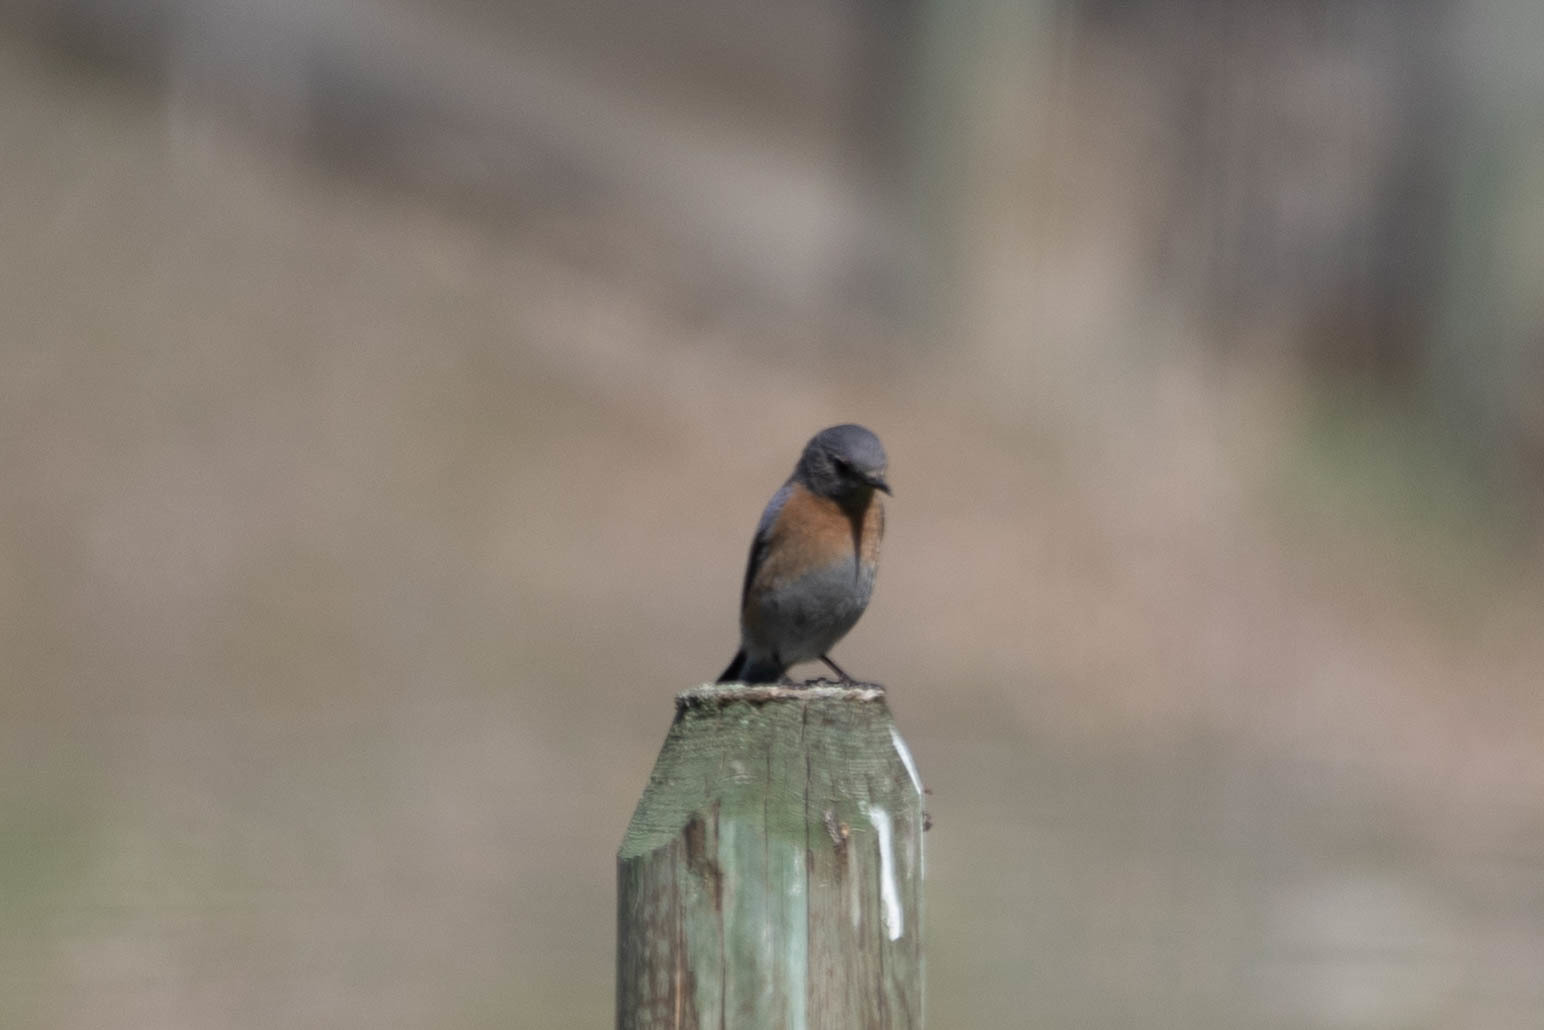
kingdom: Animalia
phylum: Chordata
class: Aves
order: Passeriformes
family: Turdidae
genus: Sialia
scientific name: Sialia mexicana
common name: Western bluebird
